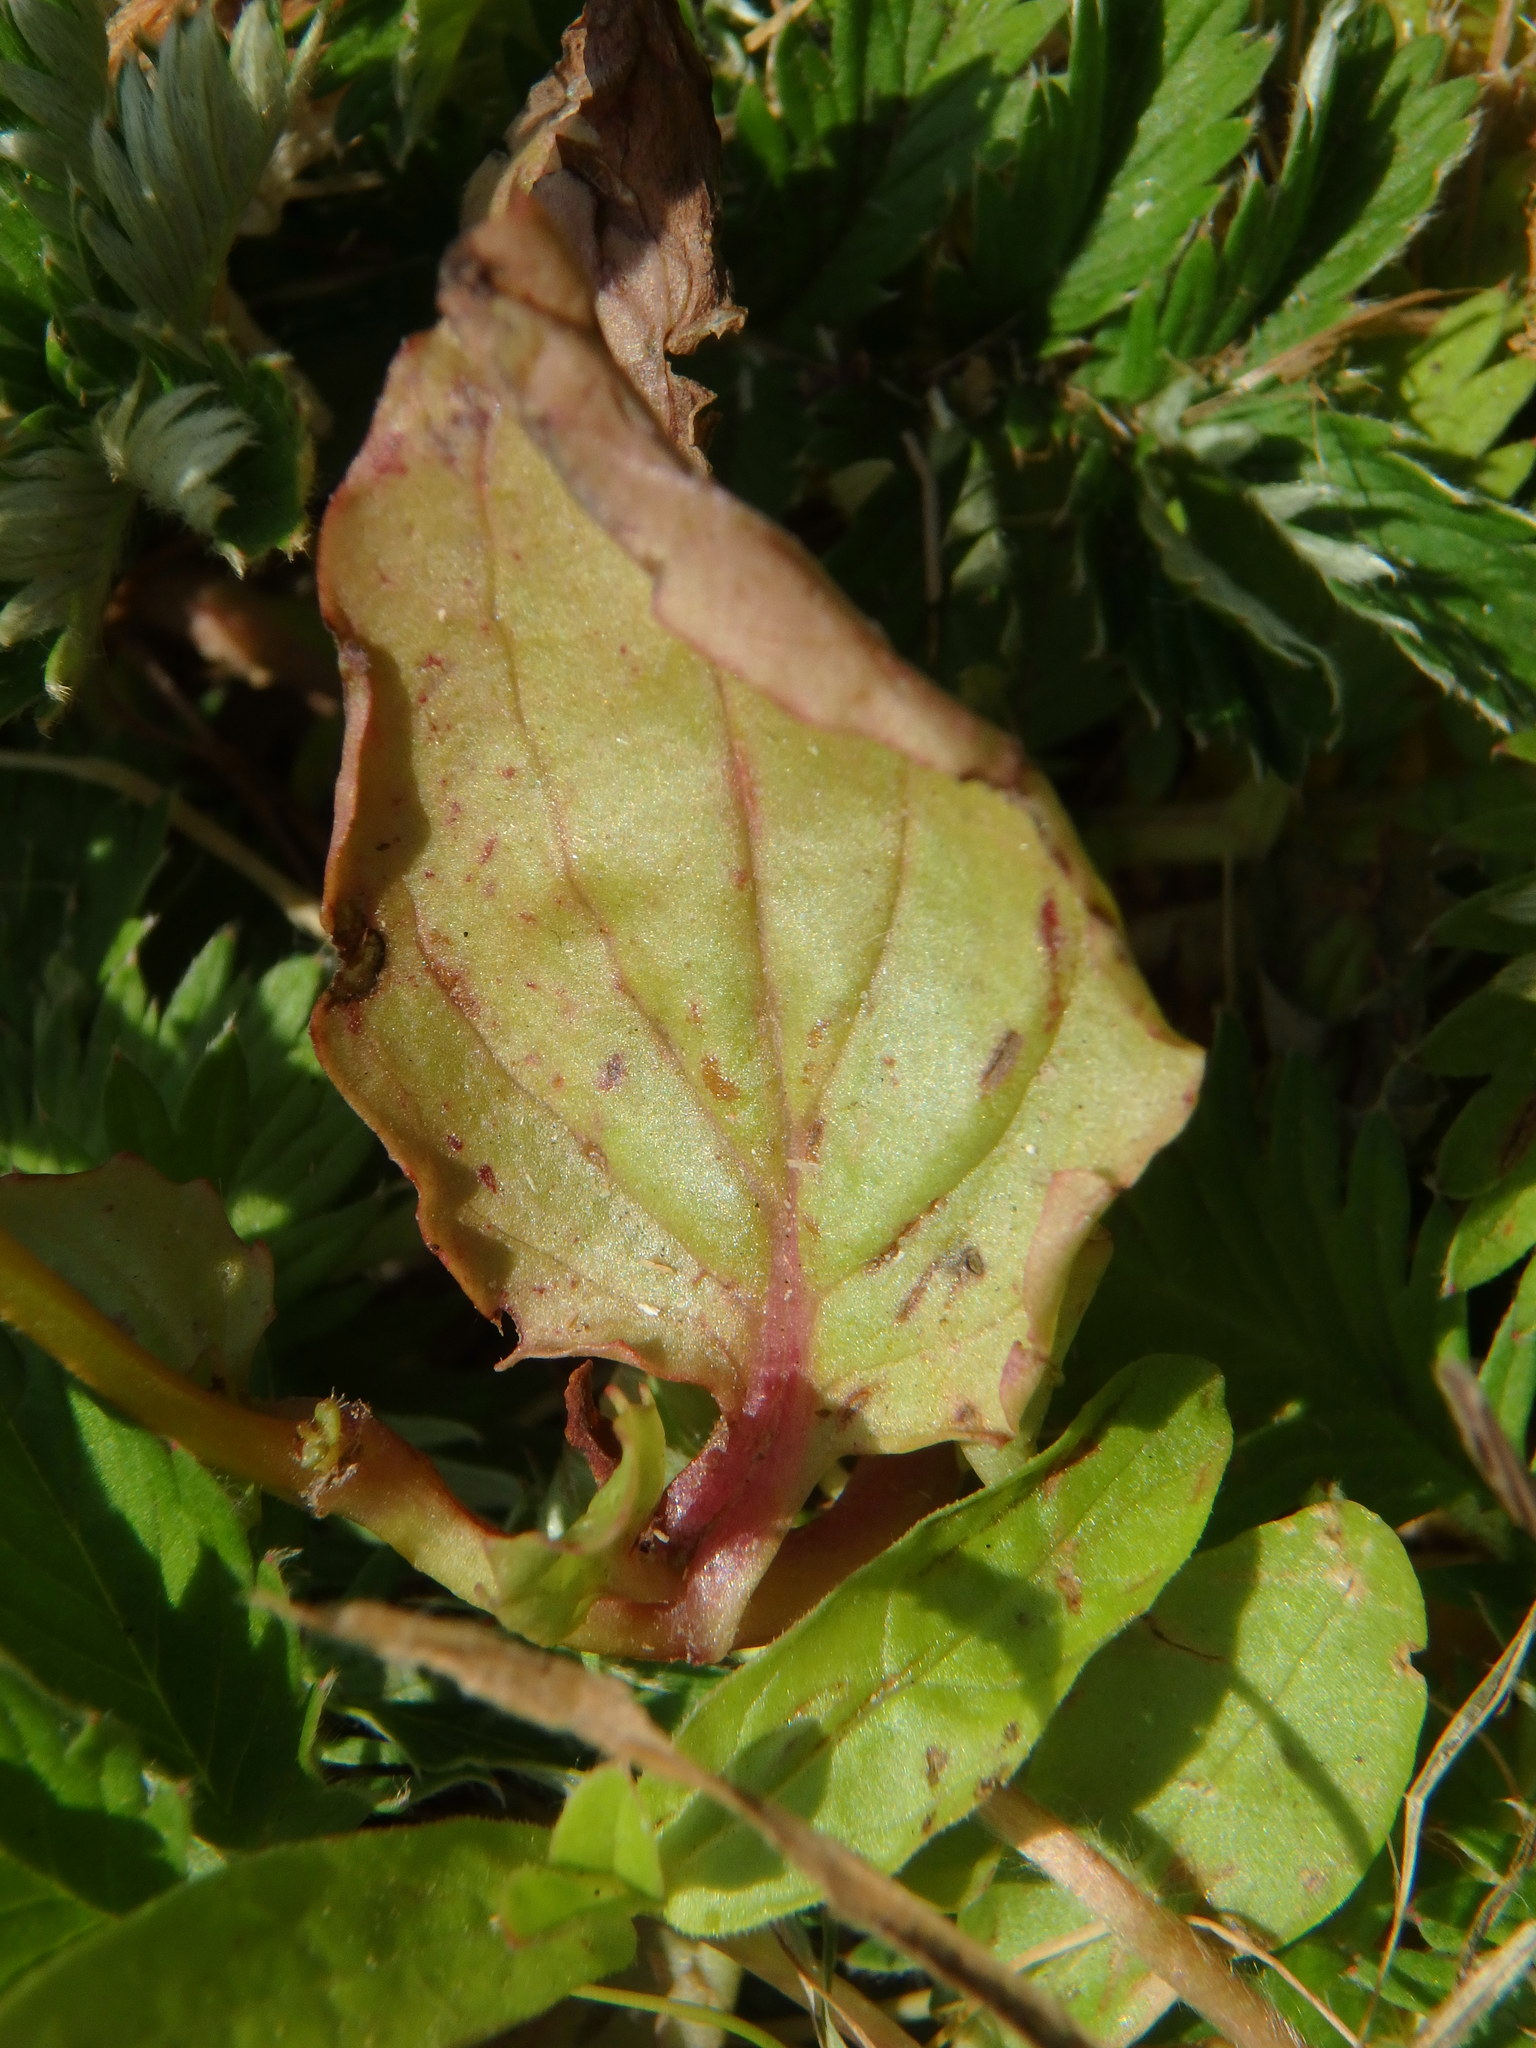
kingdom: Plantae
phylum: Tracheophyta
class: Magnoliopsida
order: Lamiales
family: Phrymaceae
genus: Erythranthe
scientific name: Erythranthe guttata
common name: Monkeyflower
